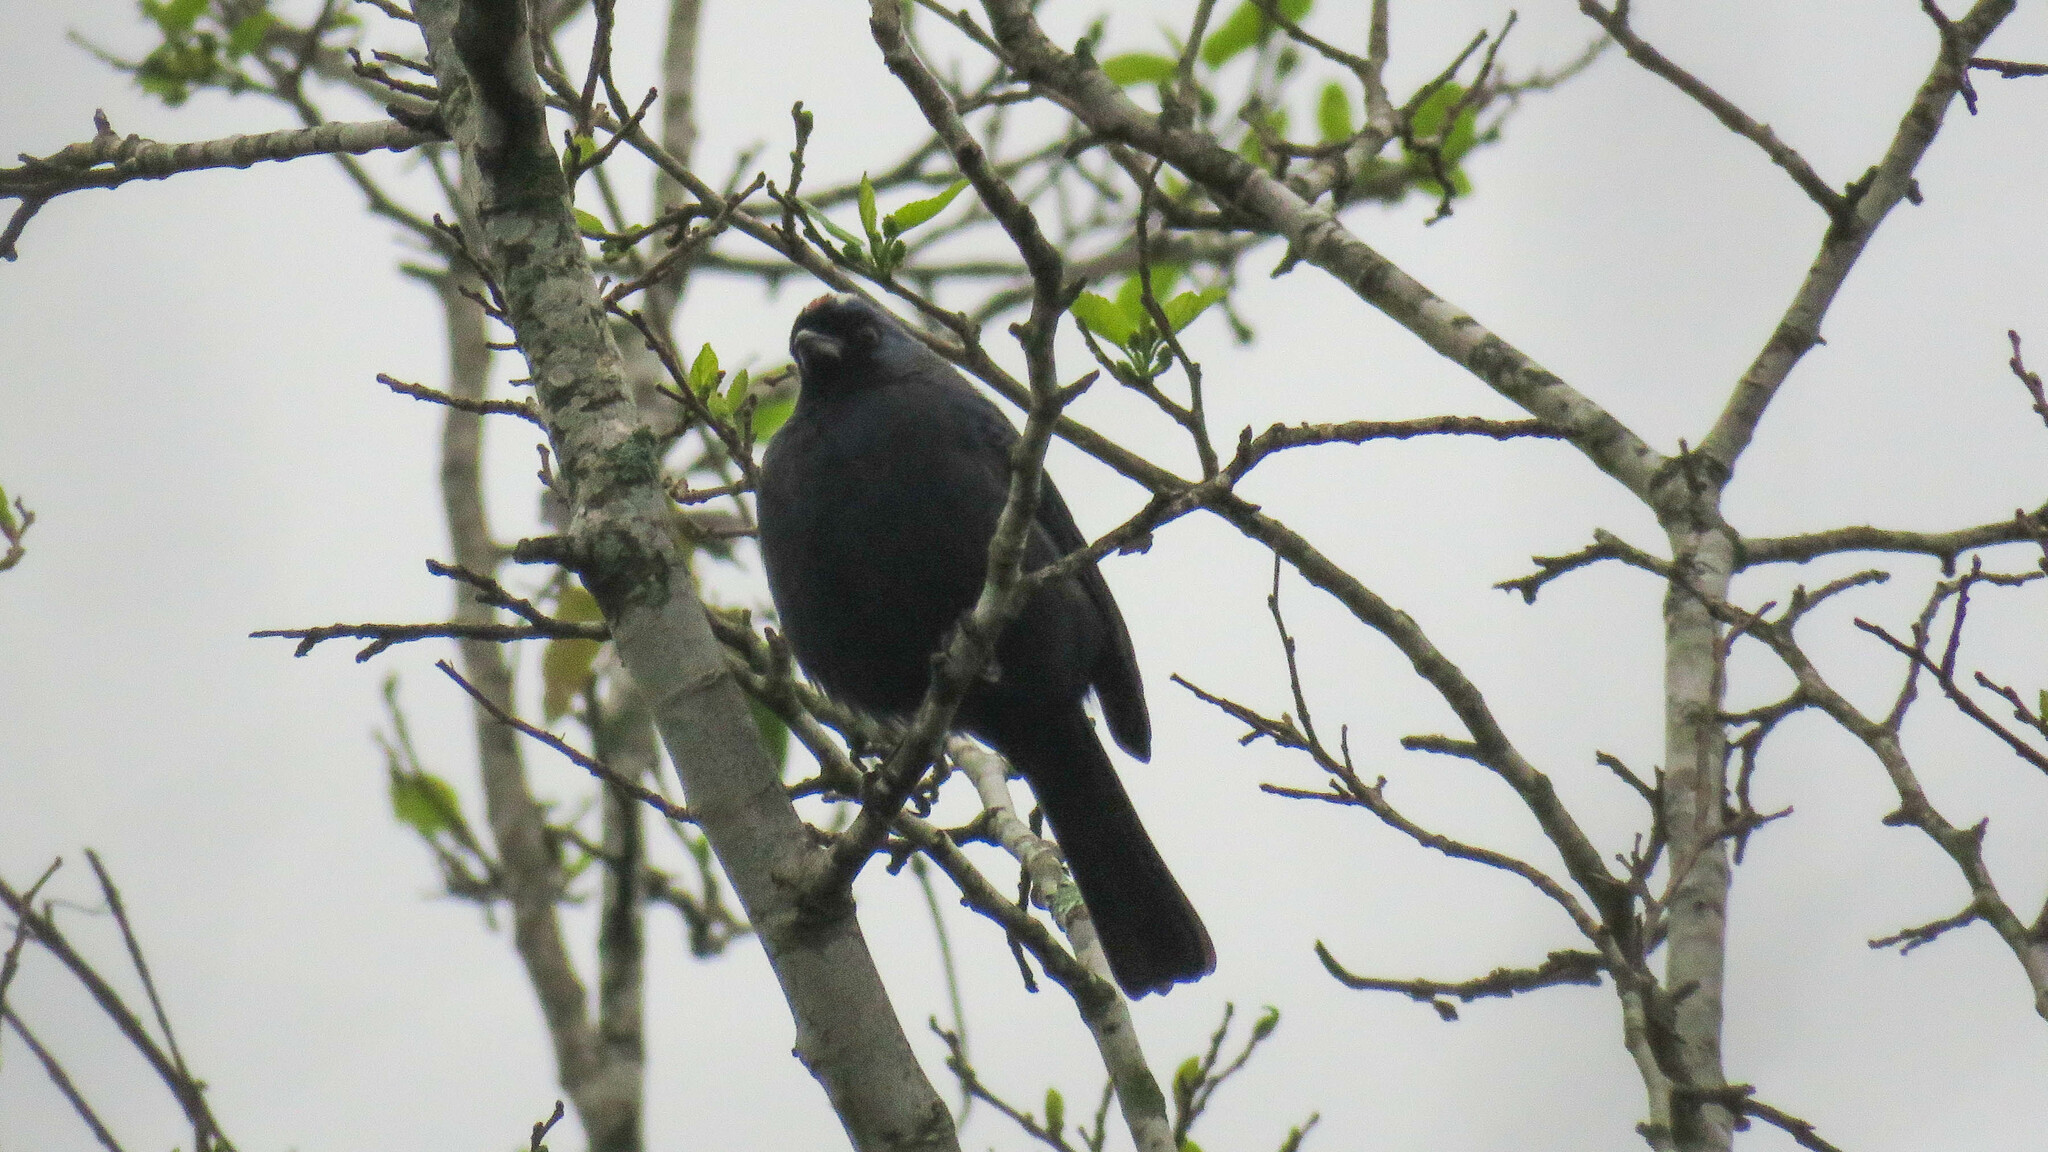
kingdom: Animalia
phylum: Chordata
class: Aves
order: Passeriformes
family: Thraupidae
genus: Stephanophorus
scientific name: Stephanophorus diadematus
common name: Diademed tanager
